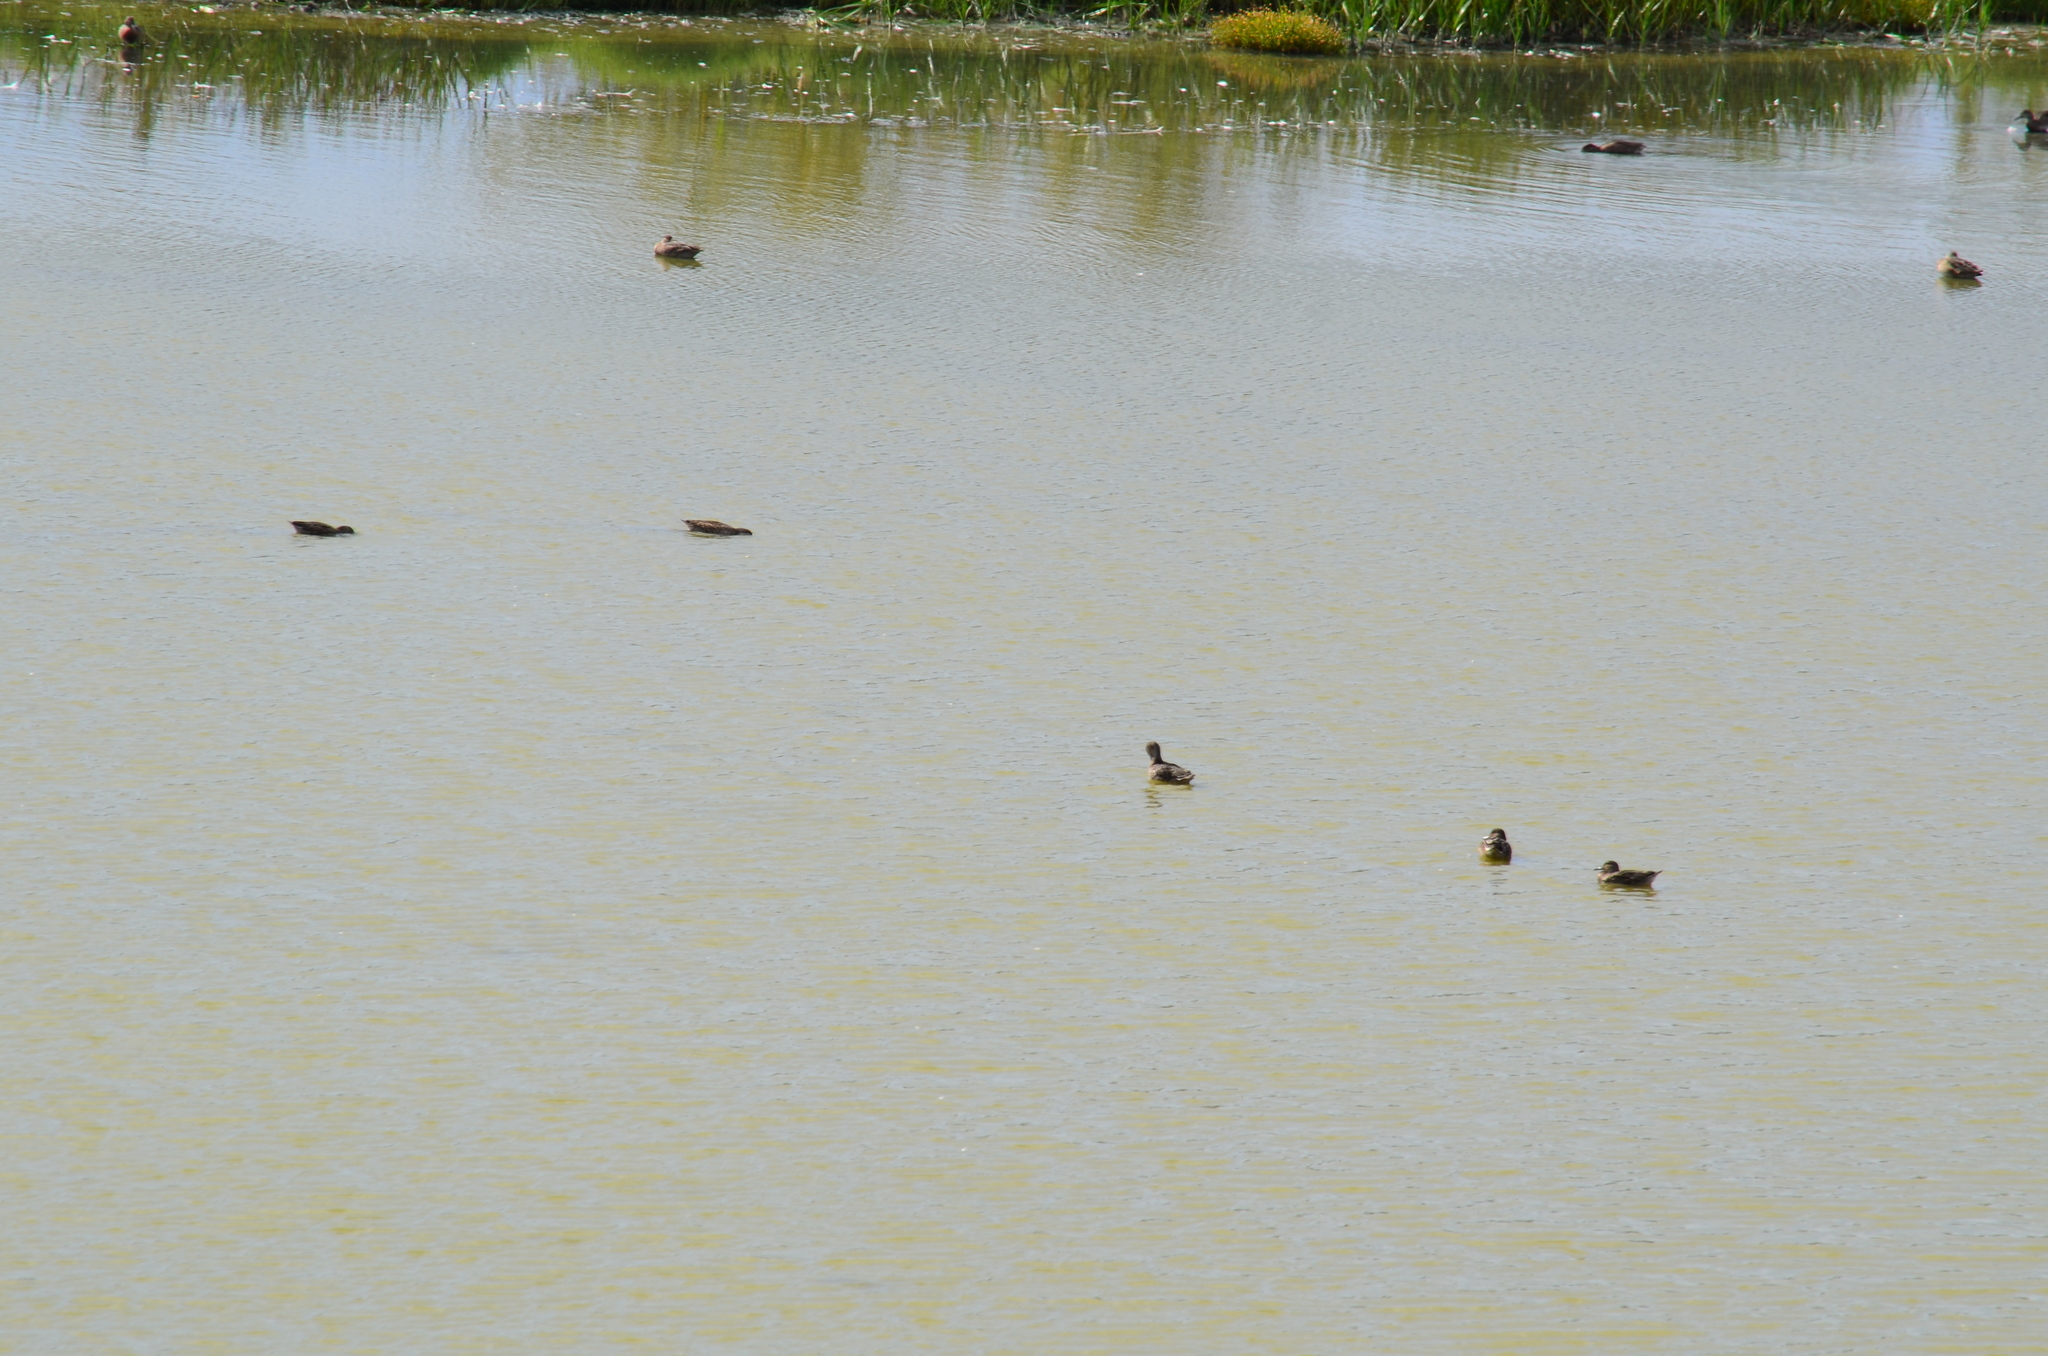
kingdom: Animalia
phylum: Chordata
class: Aves
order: Anseriformes
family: Anatidae
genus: Anas
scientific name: Anas acuta
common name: Northern pintail
